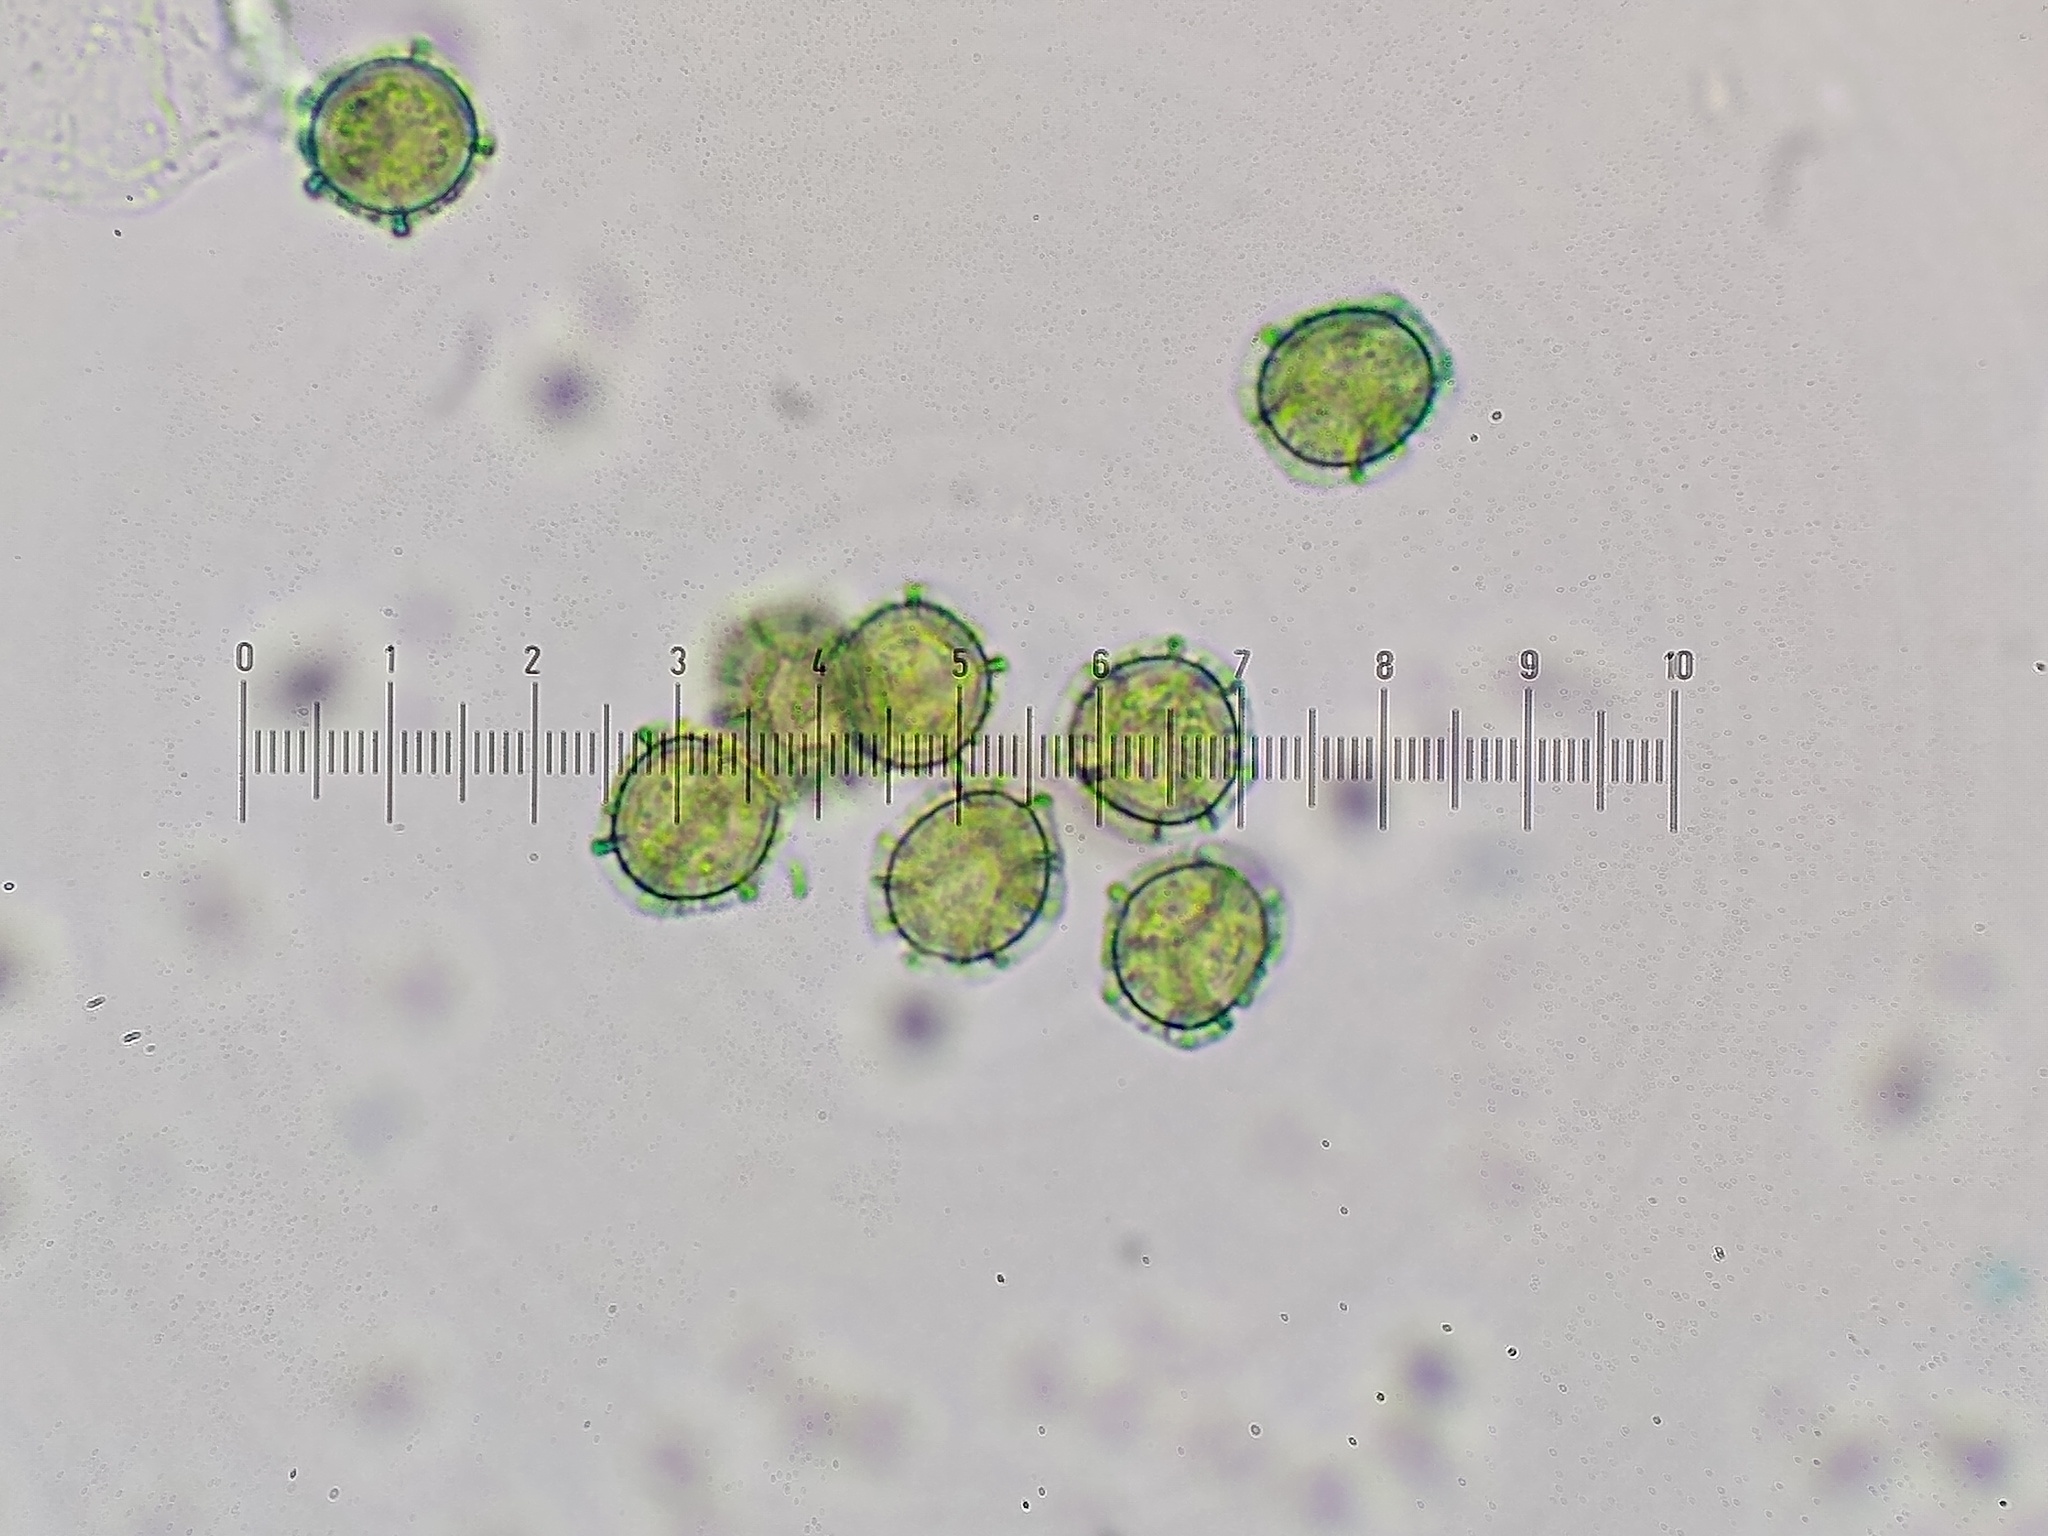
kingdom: Protozoa
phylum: Mycetozoa
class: Myxomycetes
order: Trichiales
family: Trichiaceae
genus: Oligonema
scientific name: Oligonema affine
